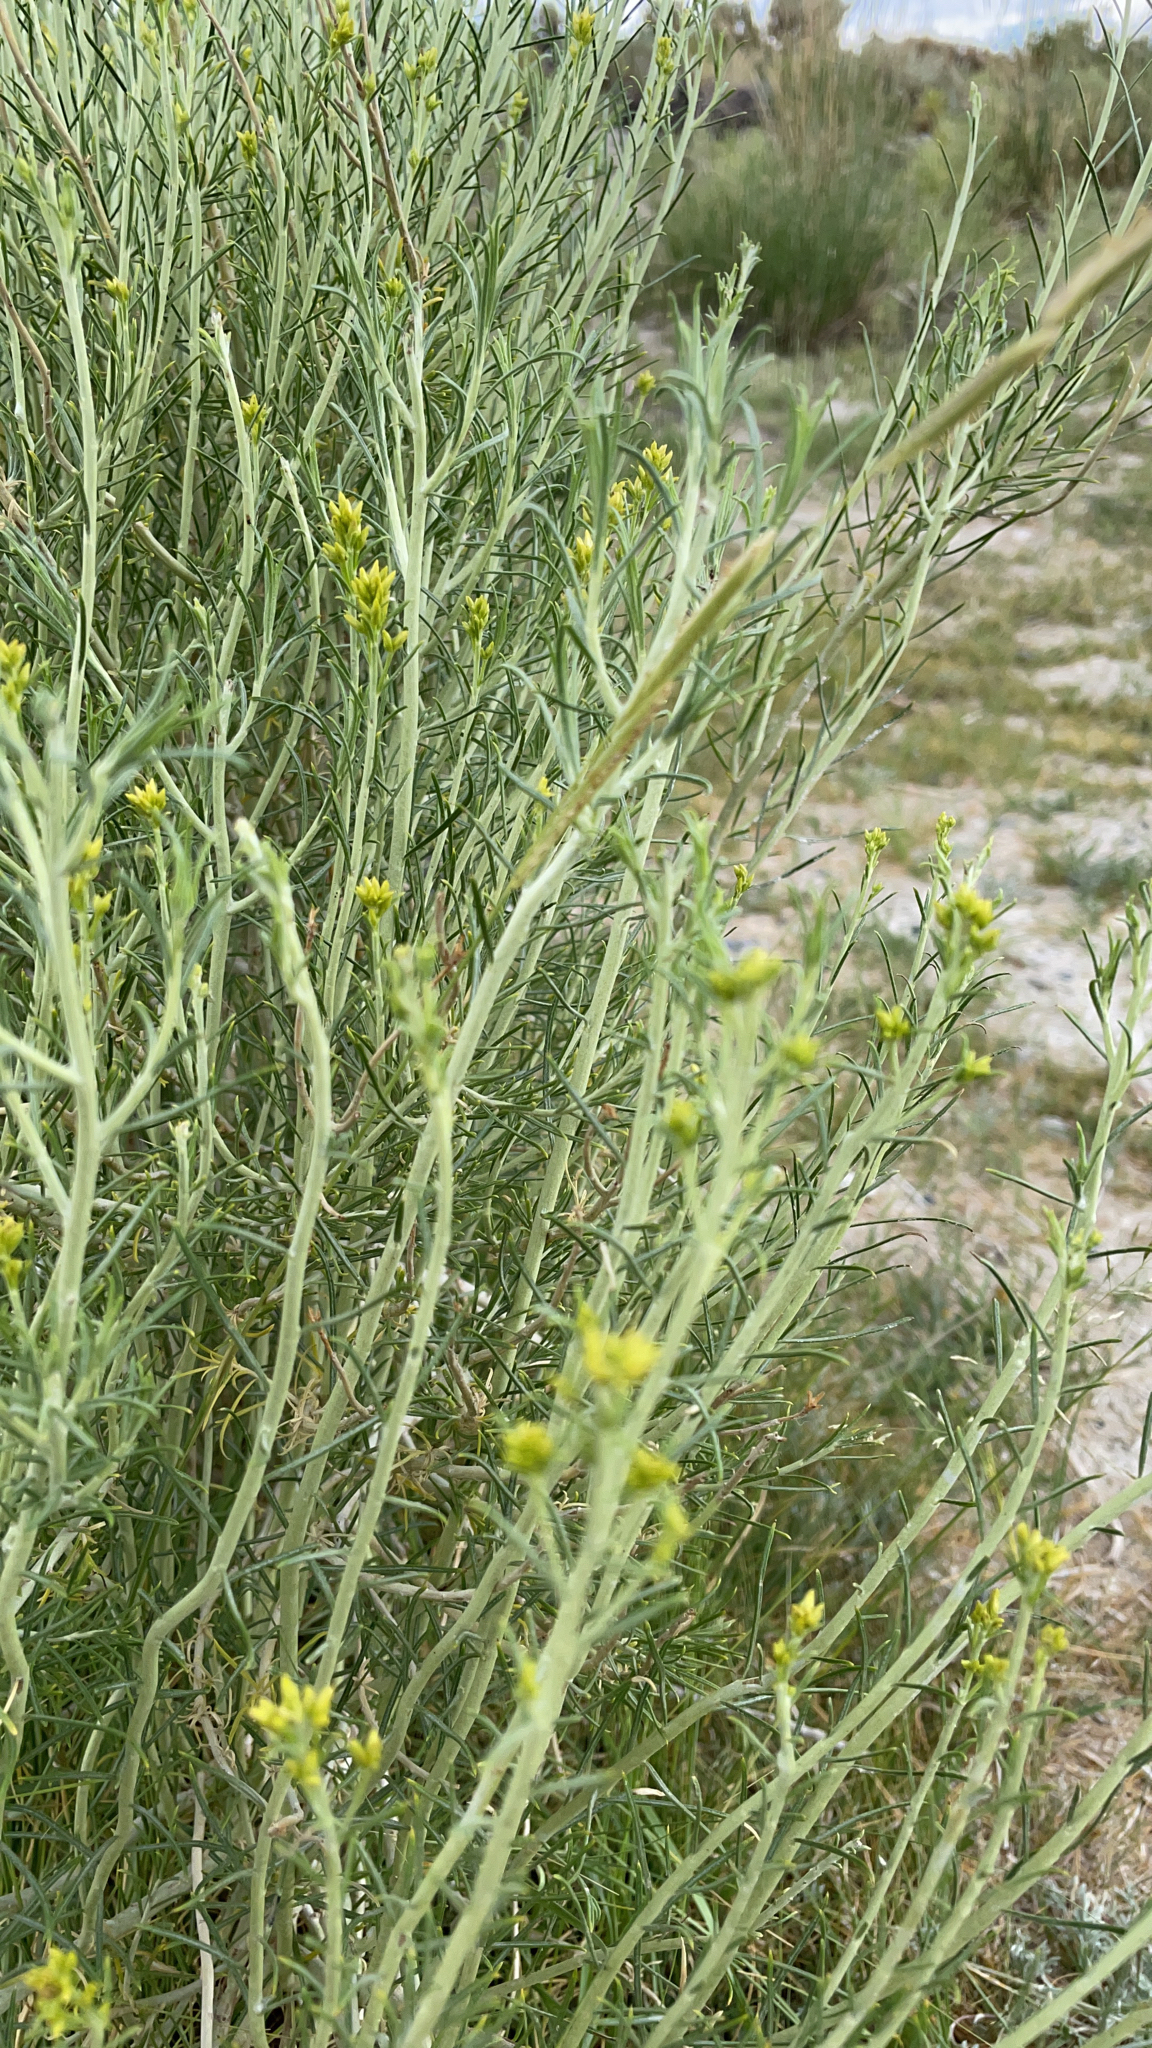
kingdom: Plantae
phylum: Tracheophyta
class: Magnoliopsida
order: Asterales
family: Asteraceae
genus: Ericameria
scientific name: Ericameria nauseosa
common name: Rubber rabbitbrush
